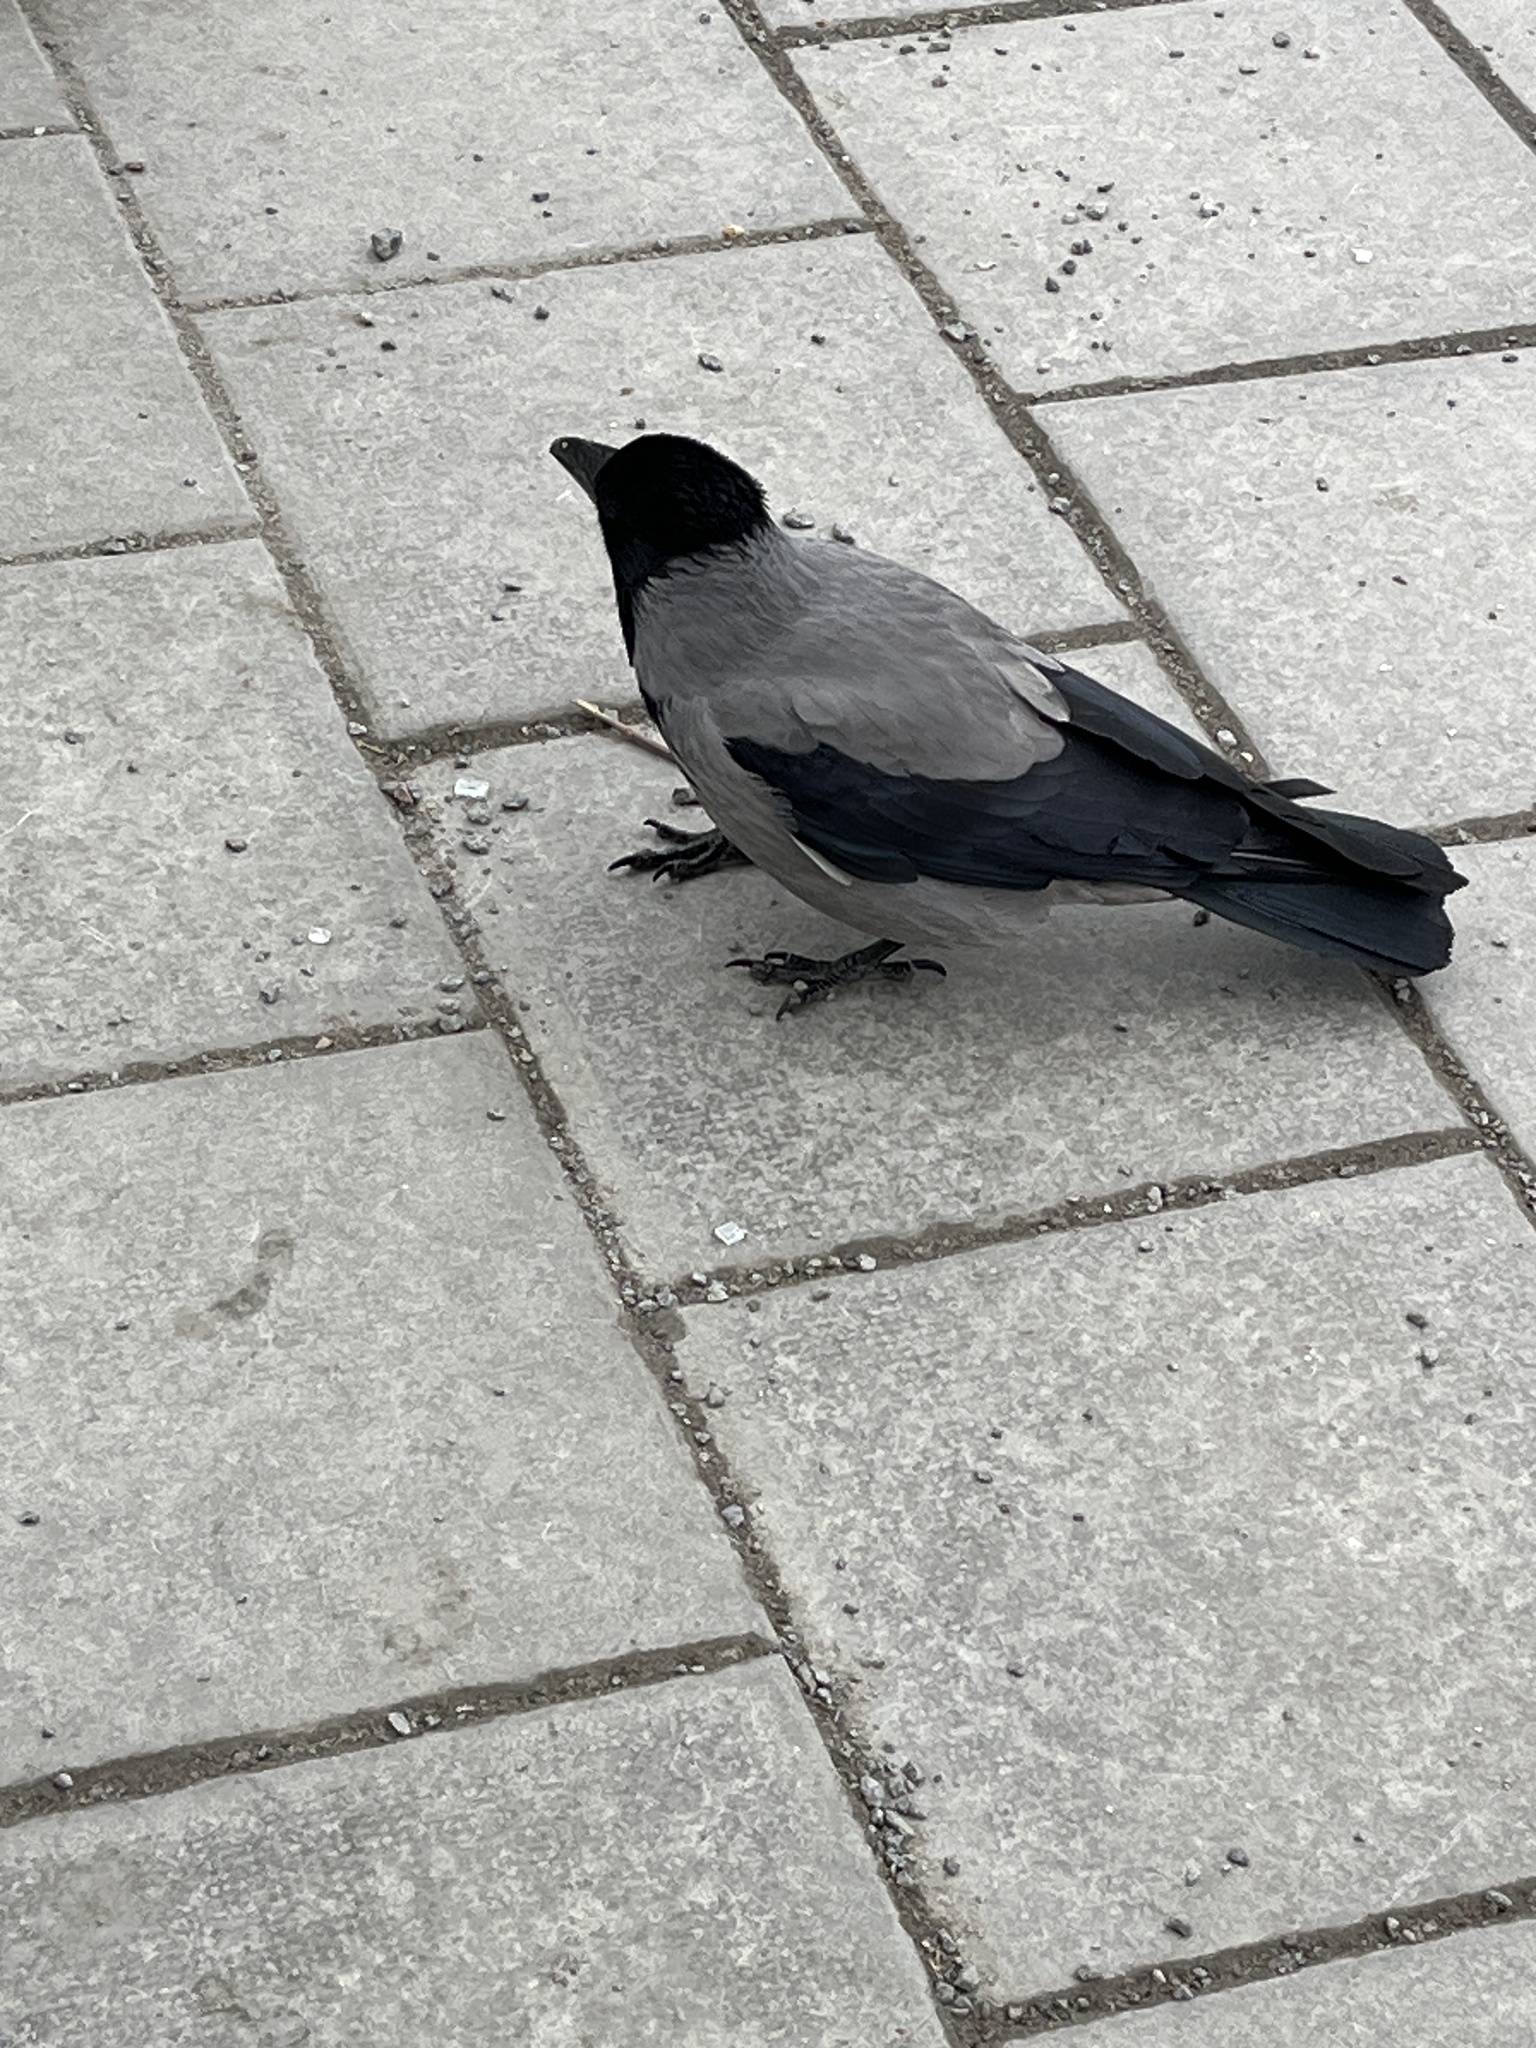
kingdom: Animalia
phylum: Chordata
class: Aves
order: Passeriformes
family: Corvidae
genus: Corvus
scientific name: Corvus cornix
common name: Hooded crow
